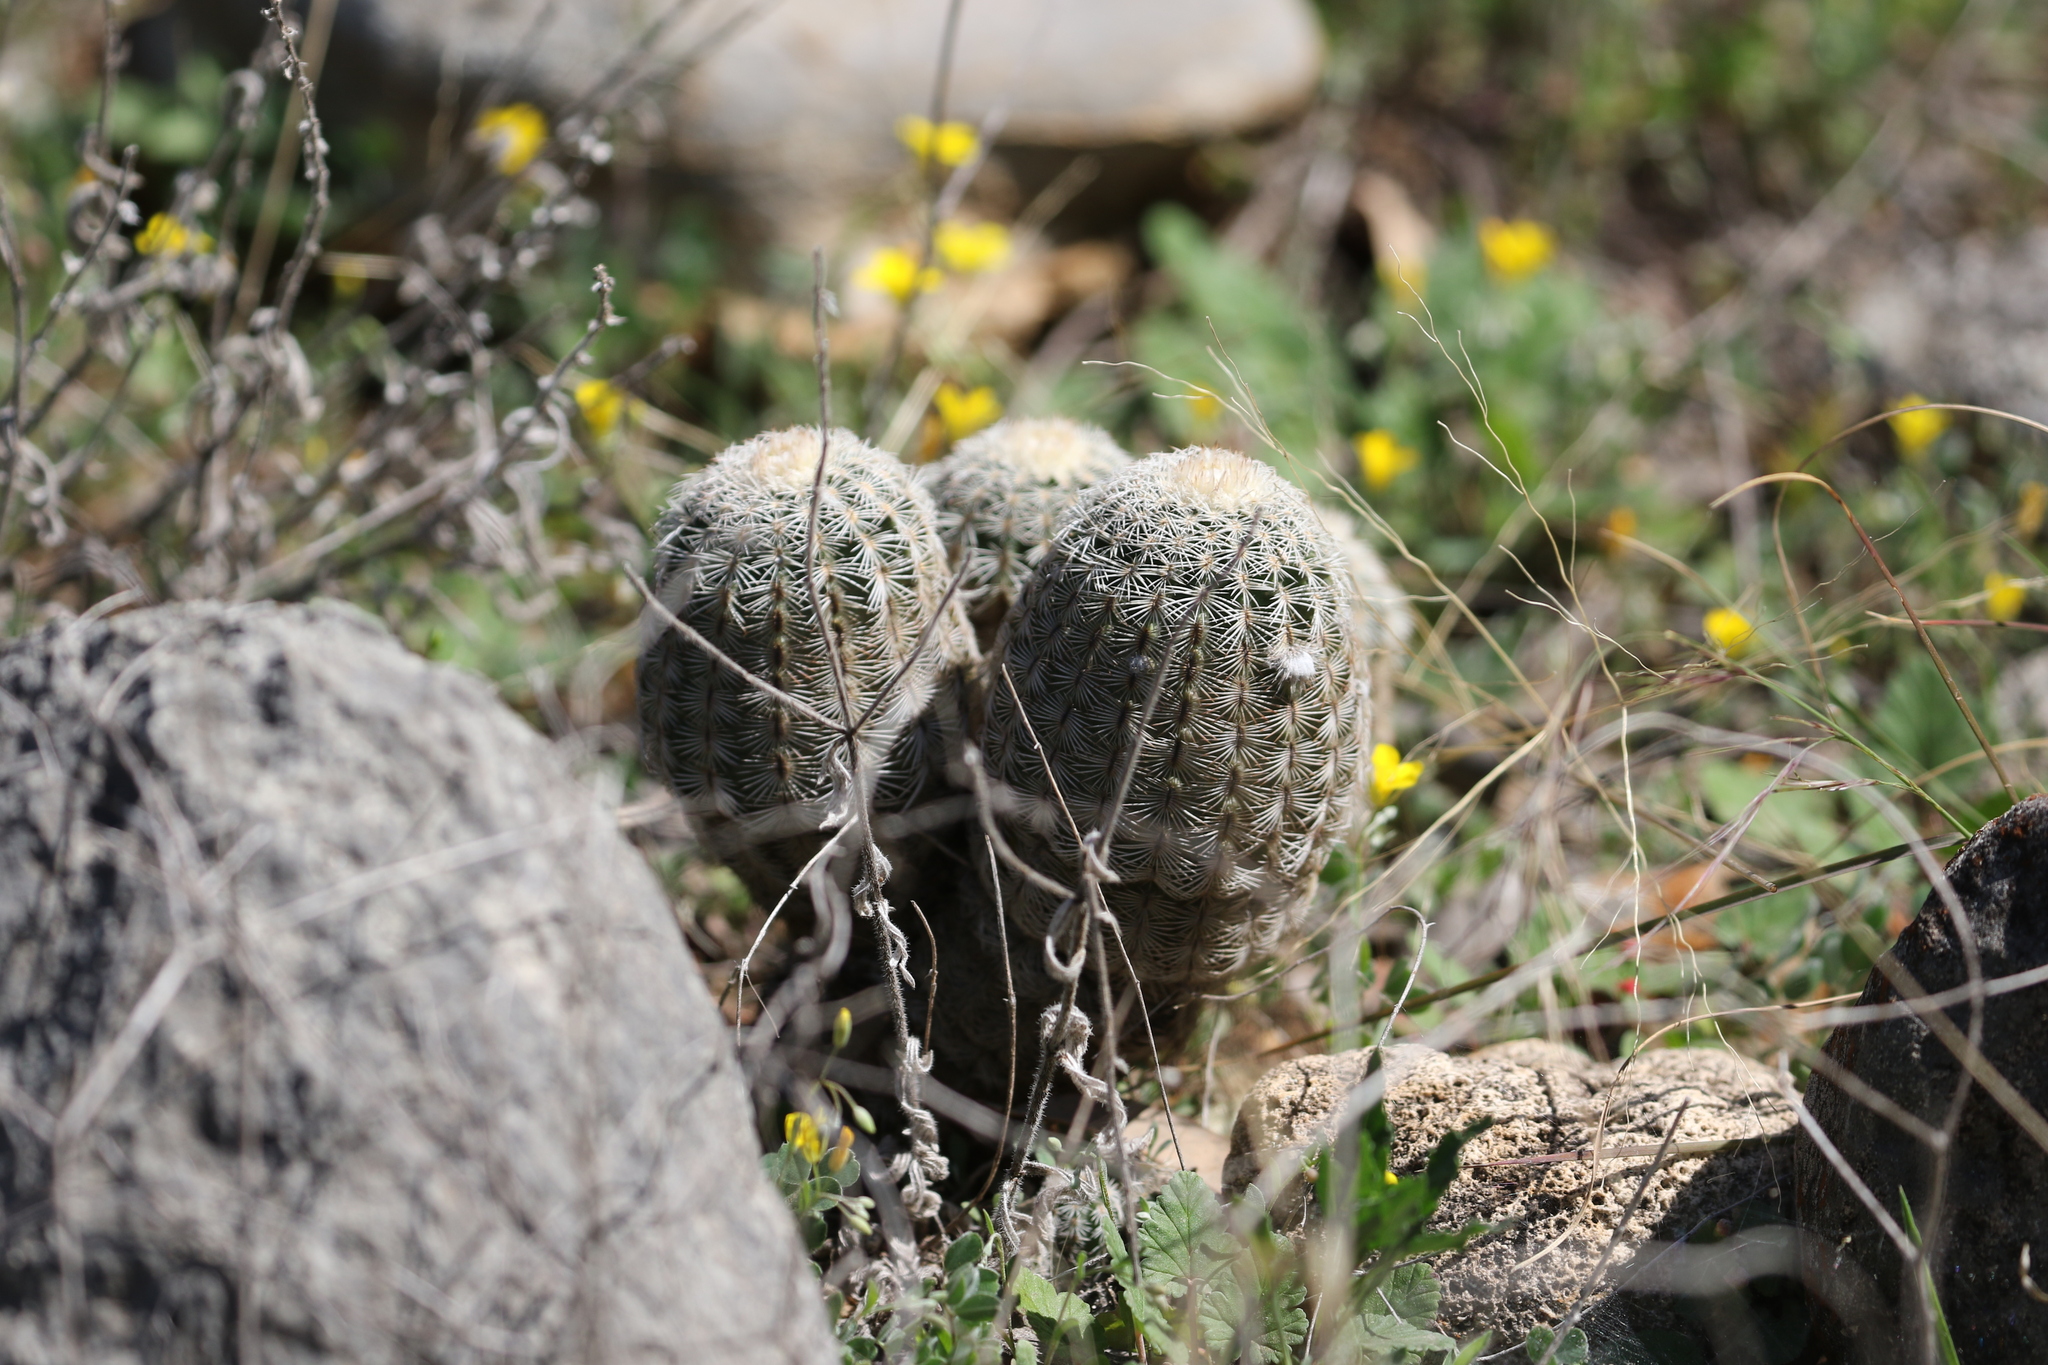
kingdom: Plantae
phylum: Tracheophyta
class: Magnoliopsida
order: Caryophyllales
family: Cactaceae
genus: Echinocereus
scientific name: Echinocereus reichenbachii
